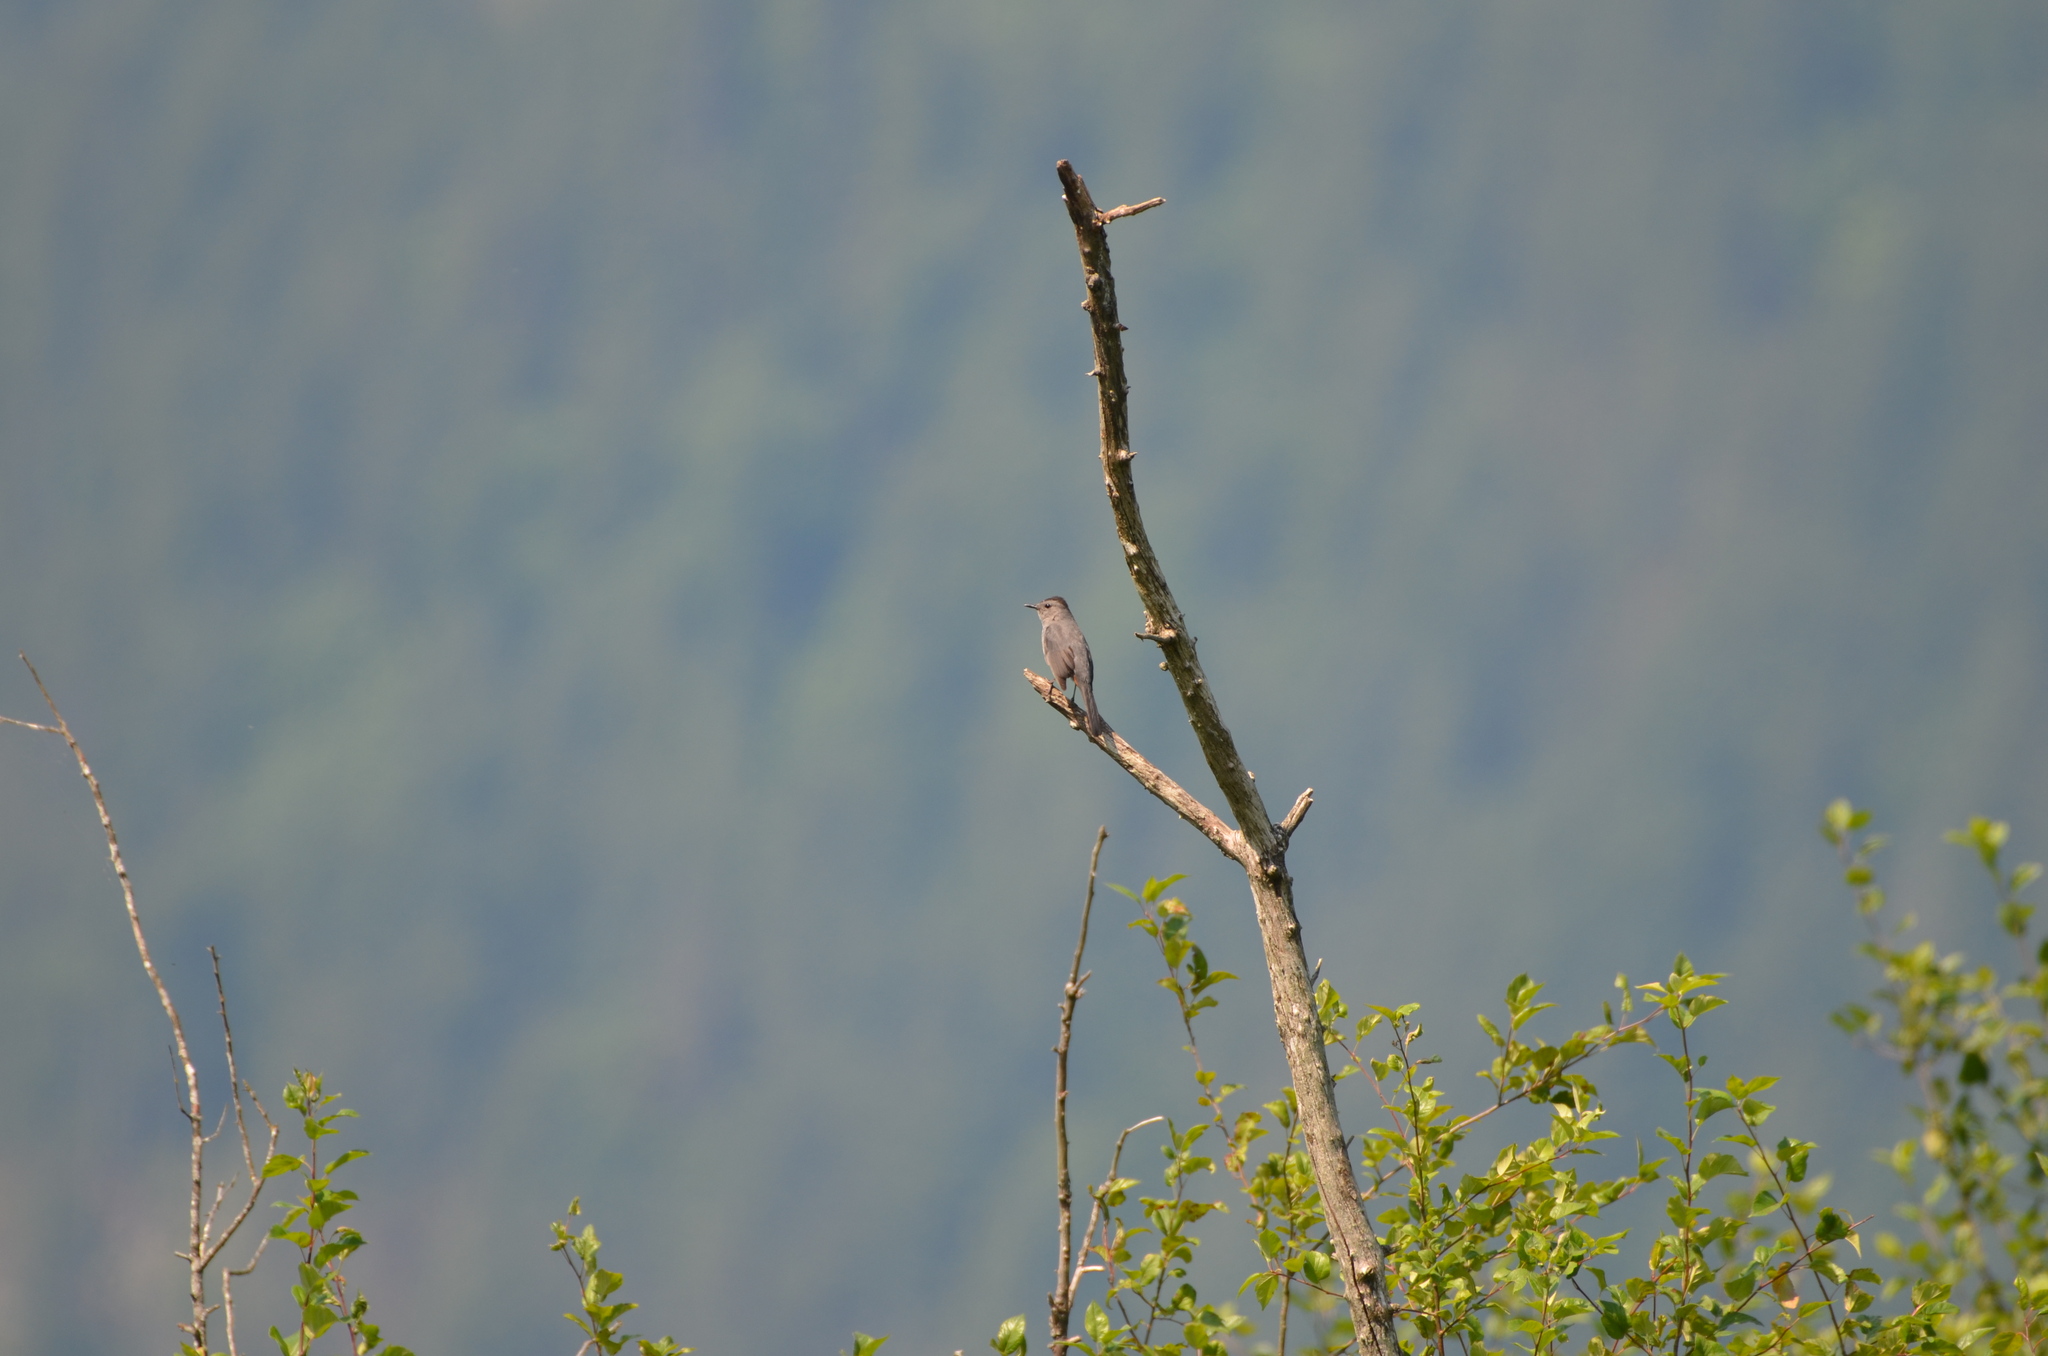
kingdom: Animalia
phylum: Chordata
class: Aves
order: Passeriformes
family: Mimidae
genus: Dumetella
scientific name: Dumetella carolinensis
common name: Gray catbird
